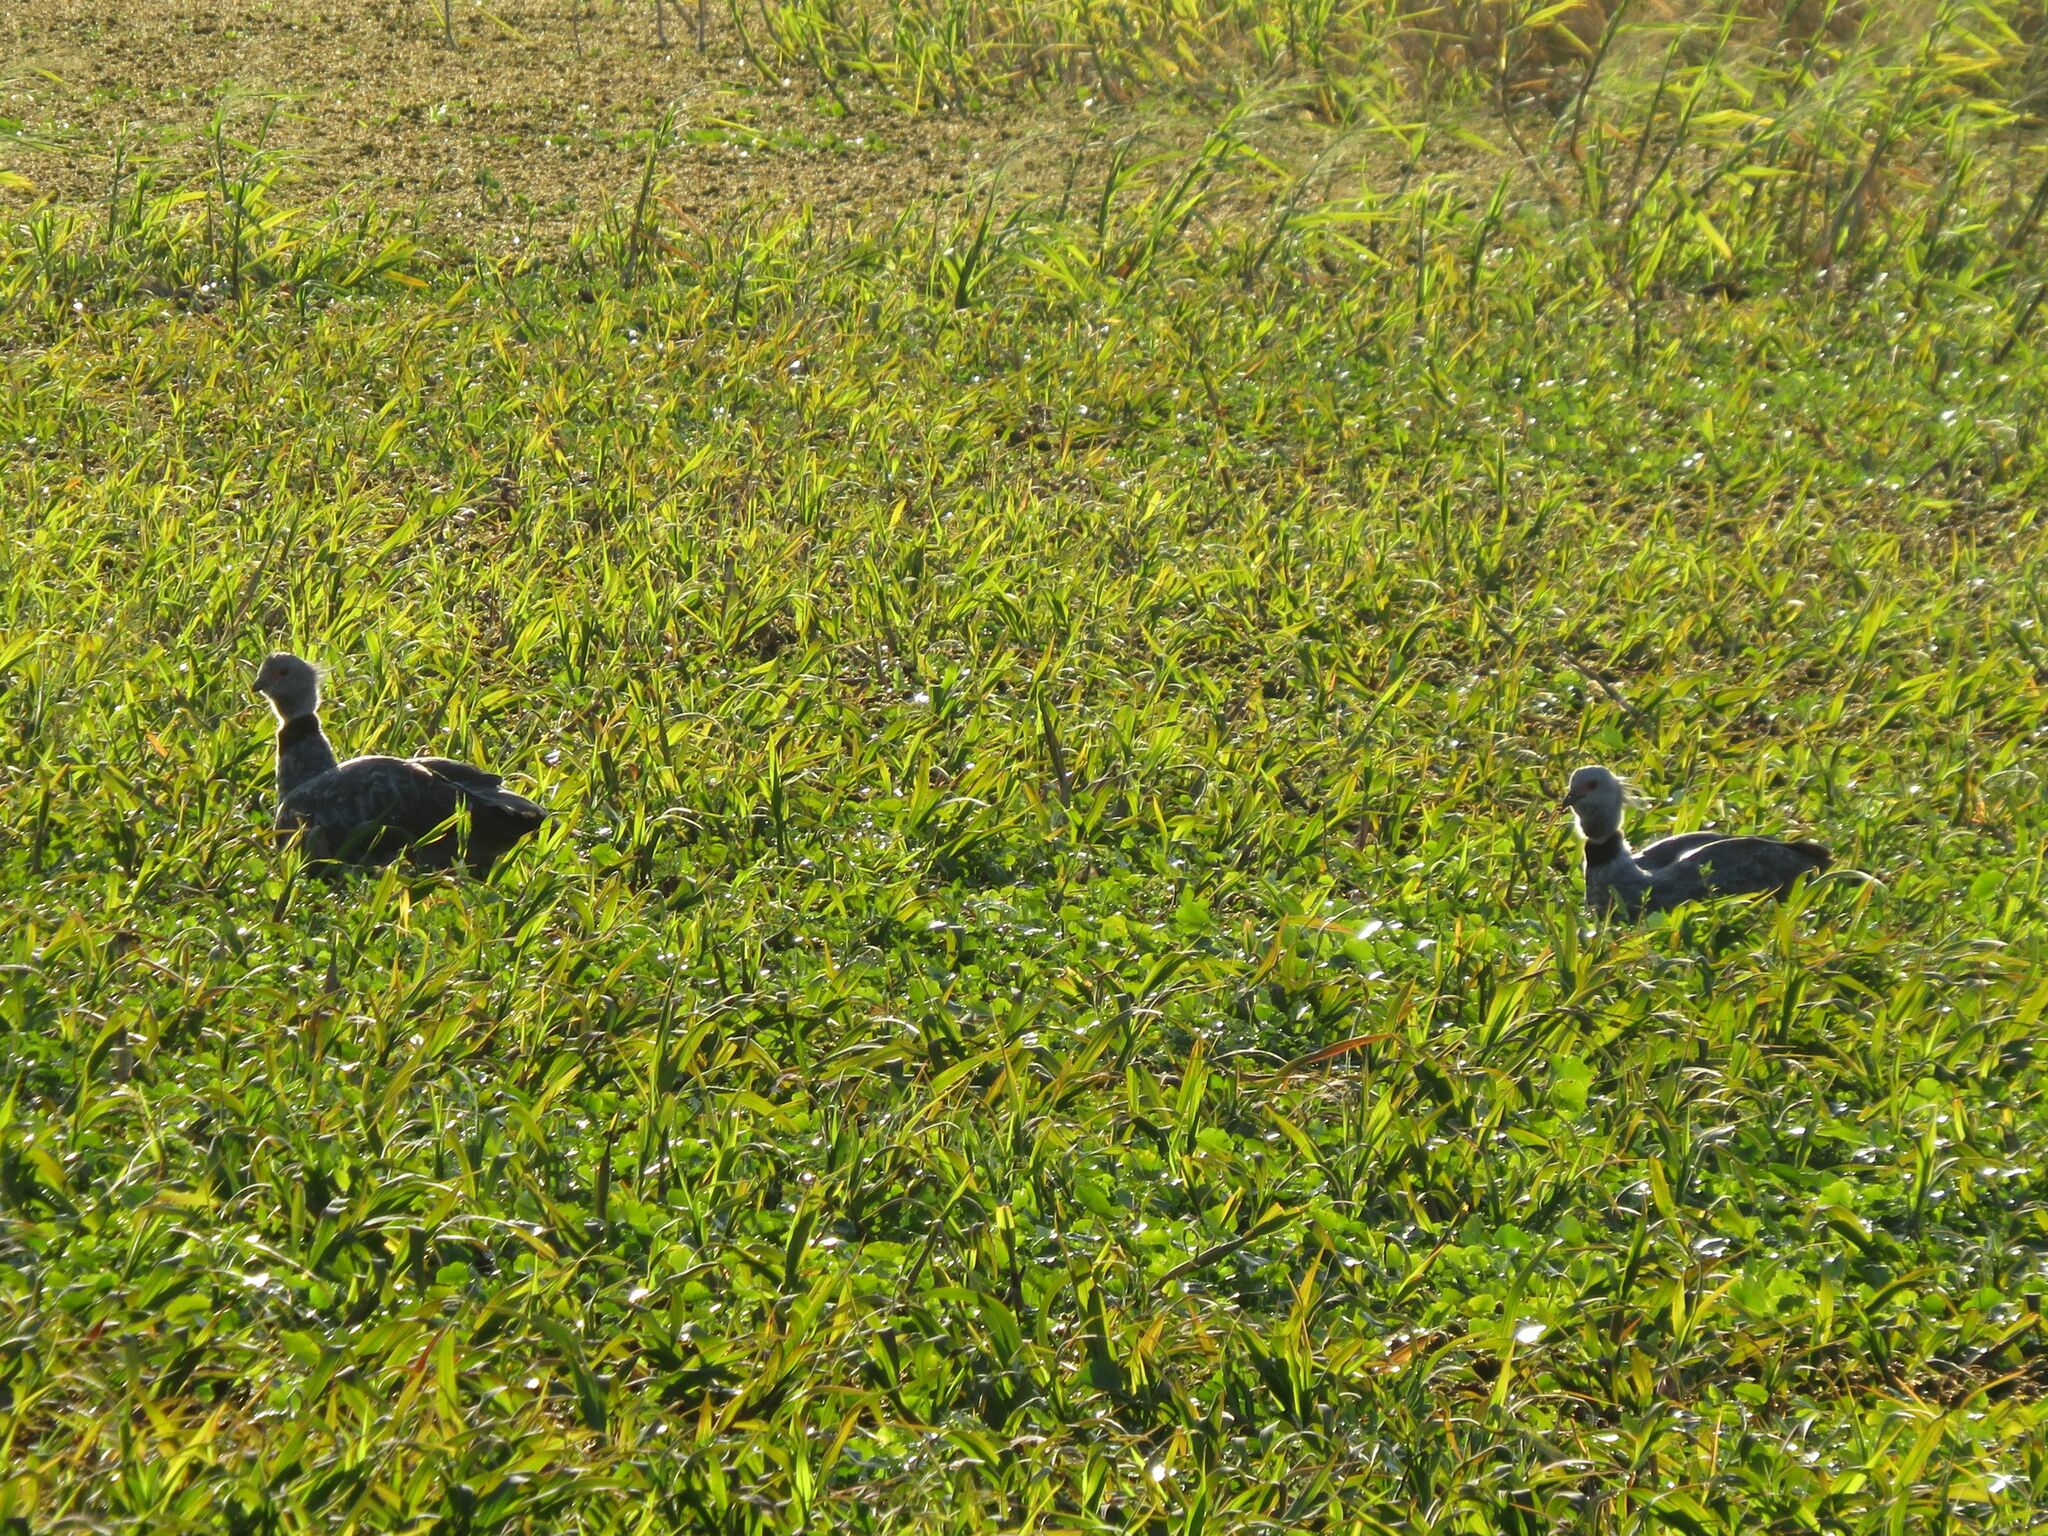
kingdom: Animalia
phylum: Chordata
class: Aves
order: Anseriformes
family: Anhimidae
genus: Chauna
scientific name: Chauna torquata
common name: Southern screamer
